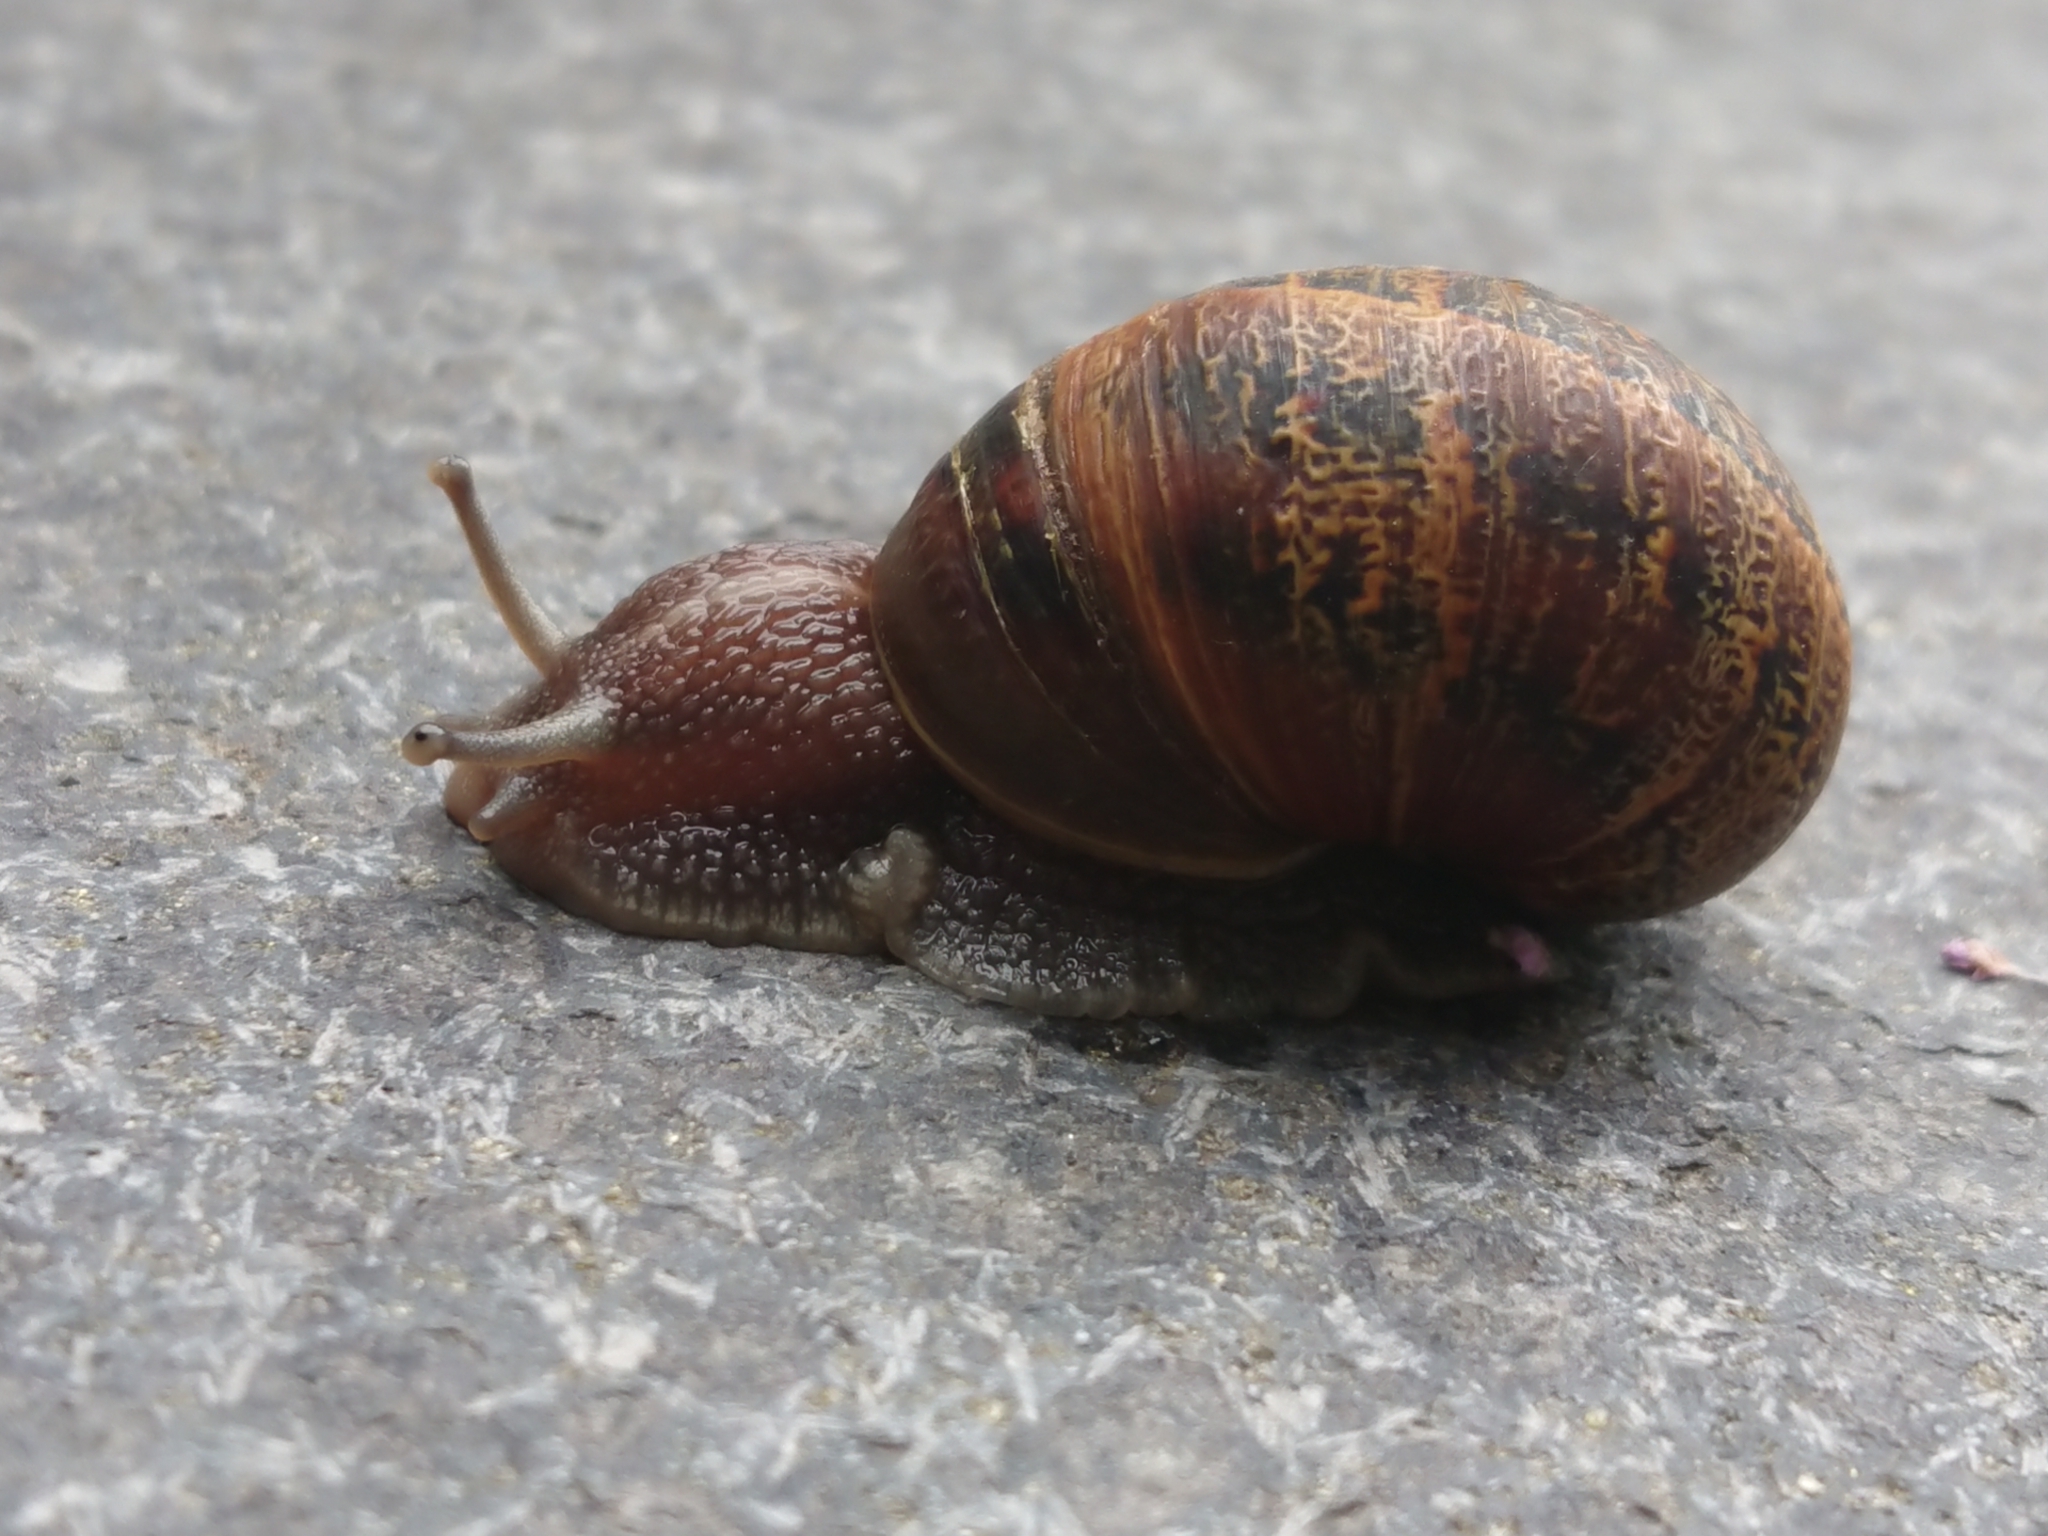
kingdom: Animalia
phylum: Mollusca
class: Gastropoda
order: Stylommatophora
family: Helicidae
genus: Cornu
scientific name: Cornu aspersum
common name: Brown garden snail
